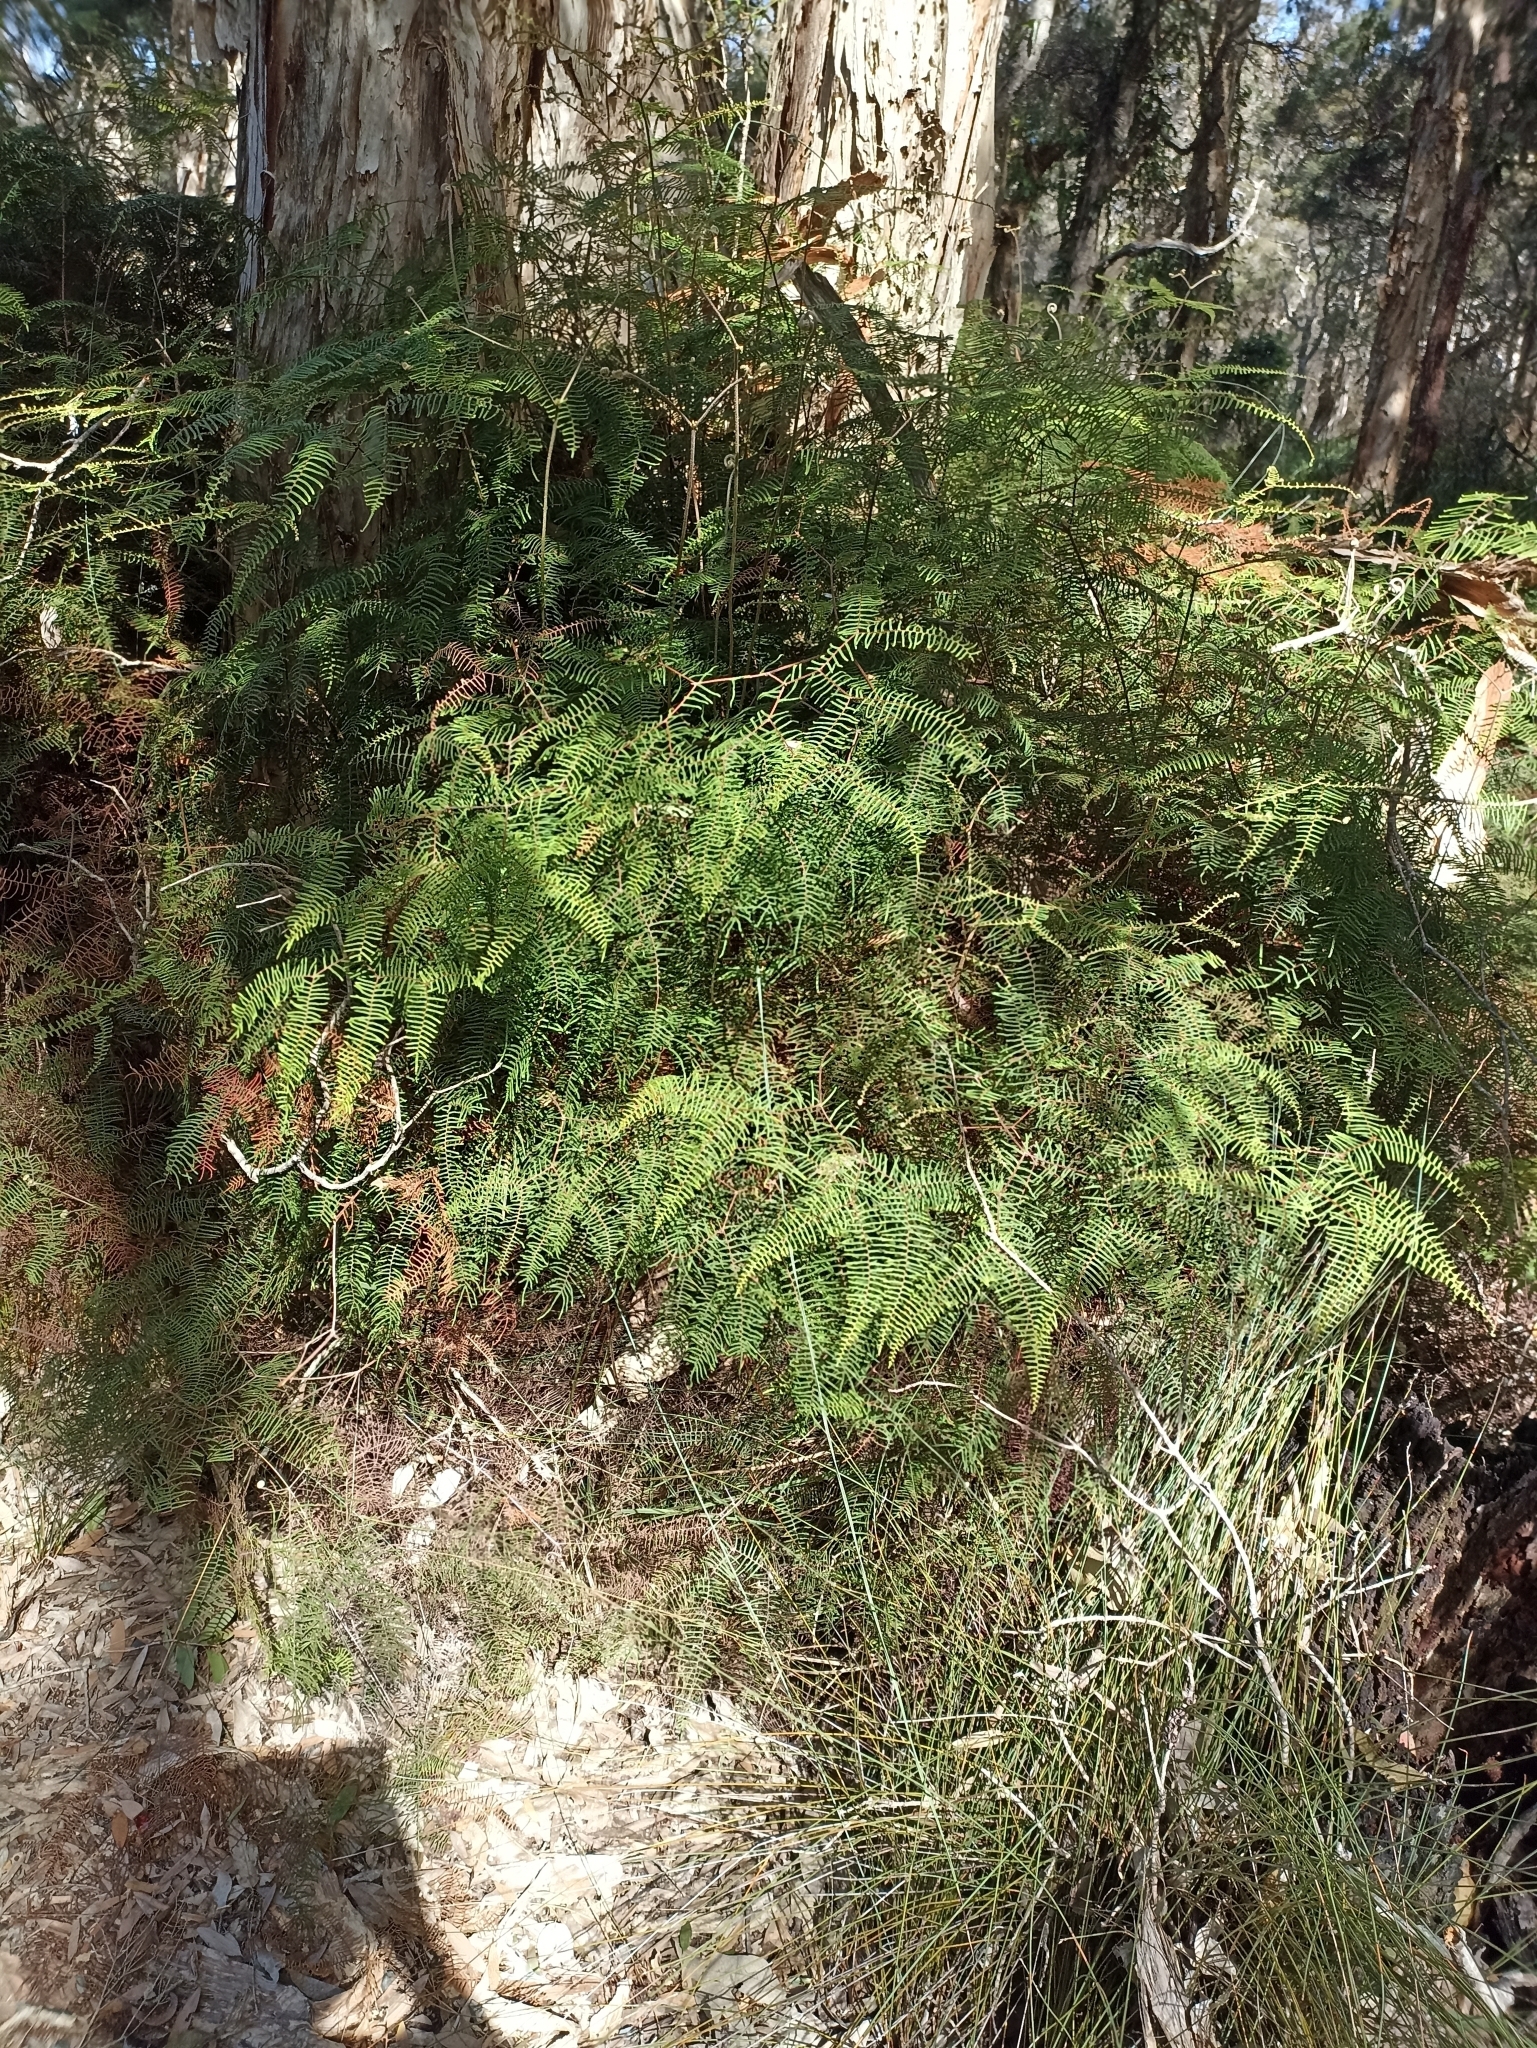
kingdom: Plantae
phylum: Tracheophyta
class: Polypodiopsida
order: Gleicheniales
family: Gleicheniaceae
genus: Gleichenia
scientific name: Gleichenia dicarpa
